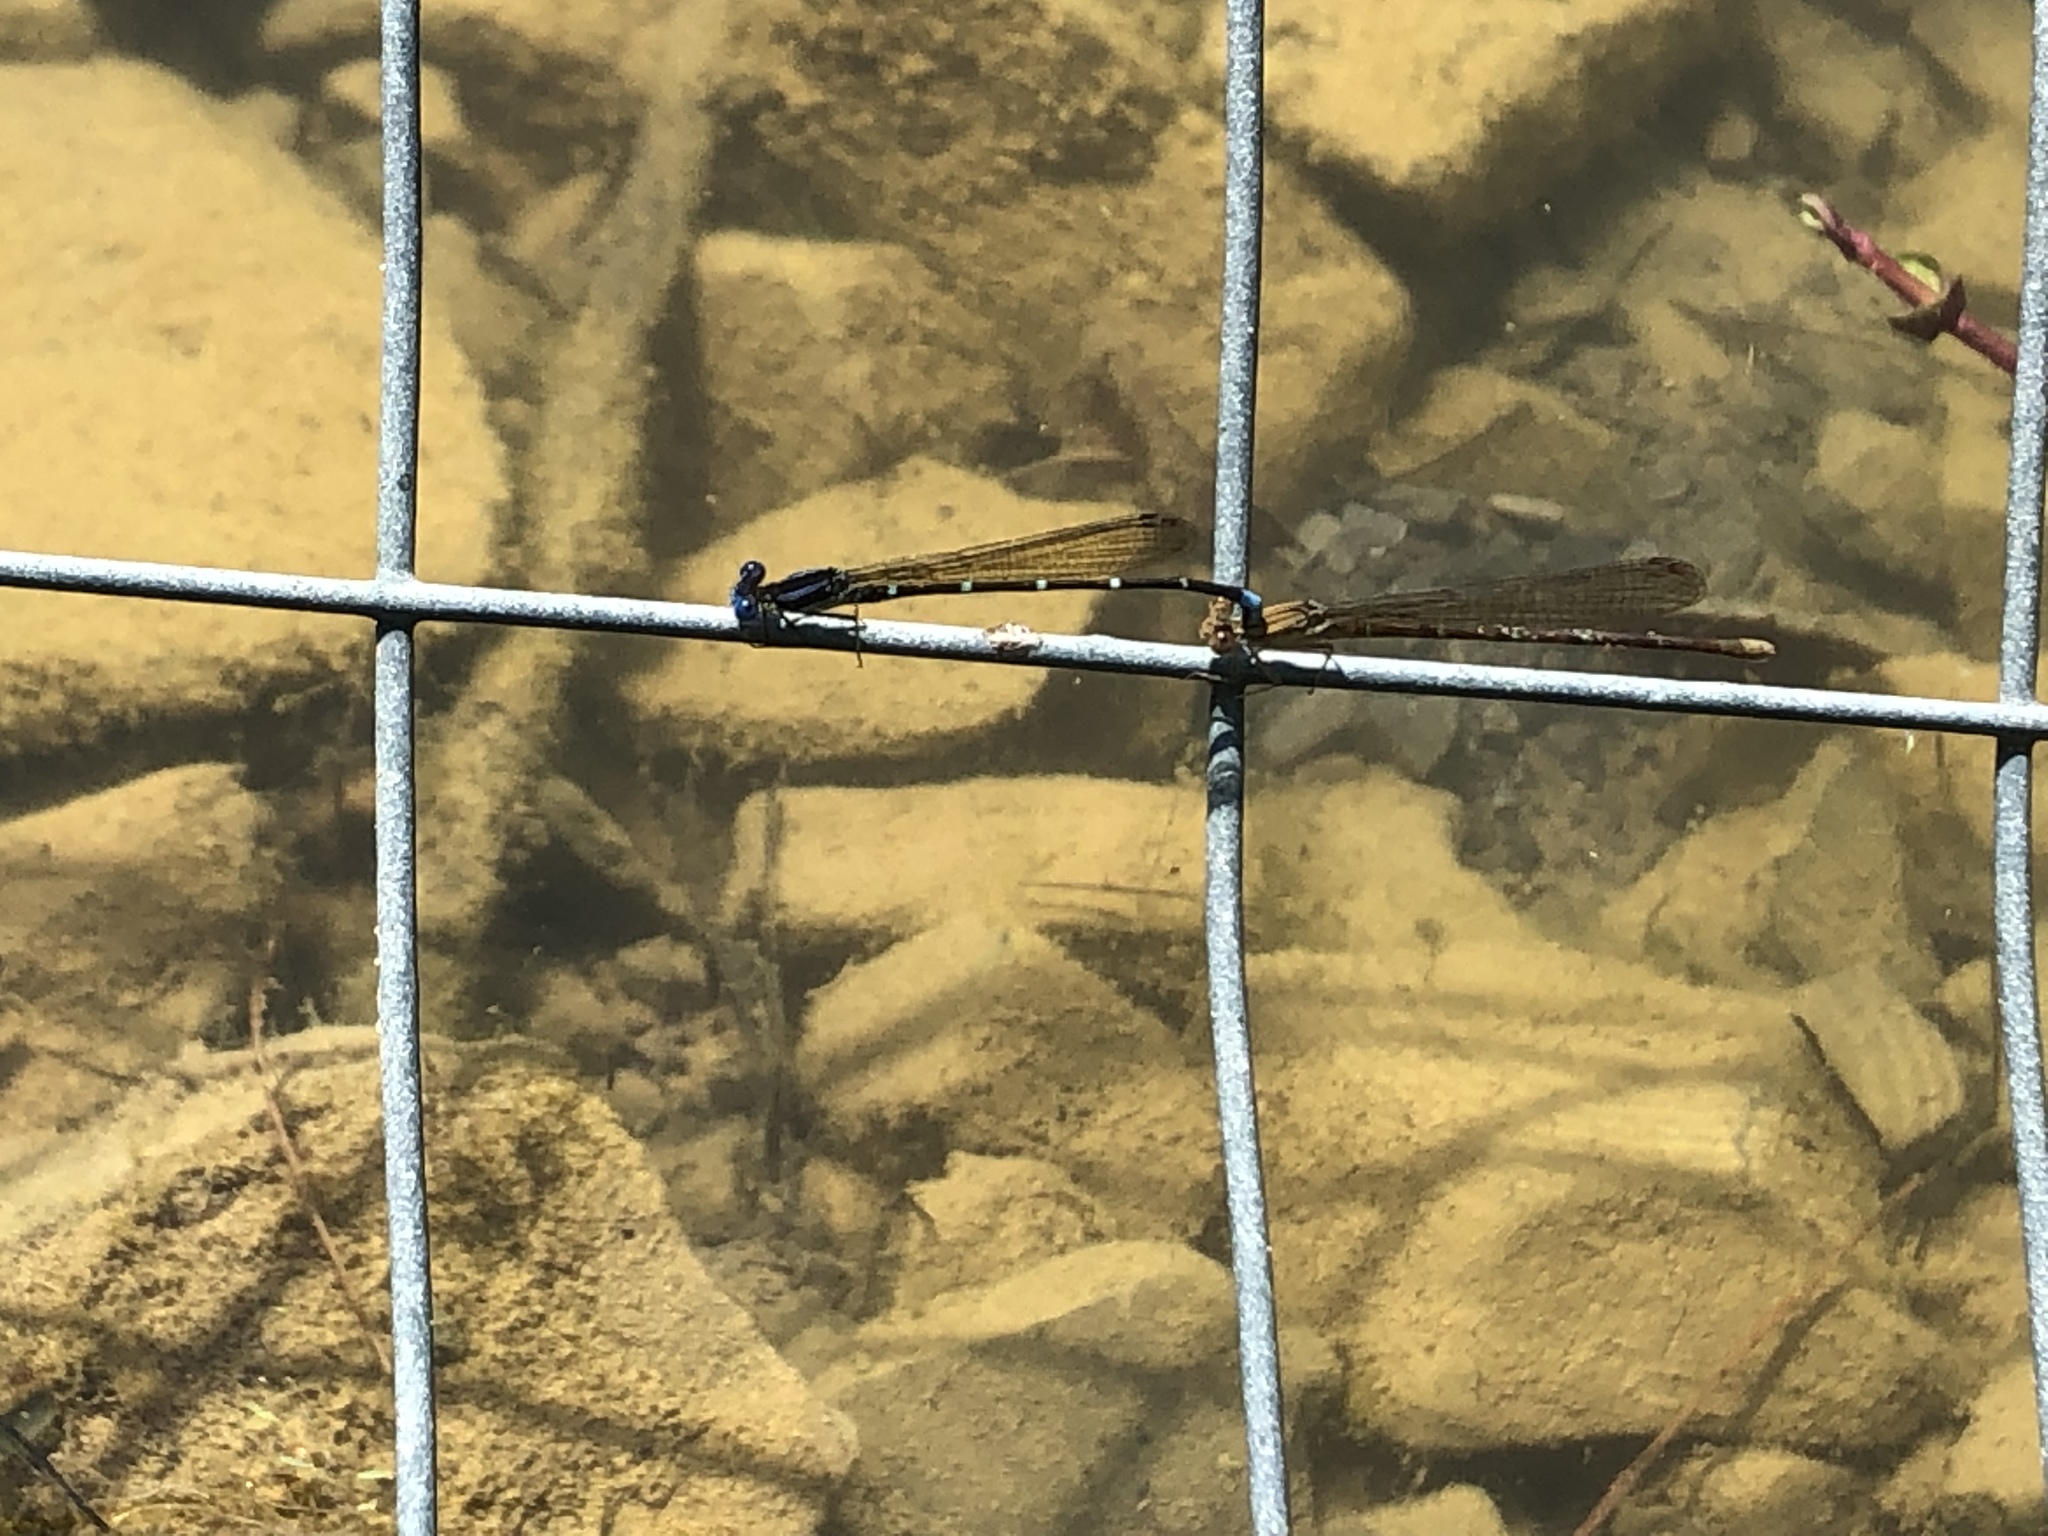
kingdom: Animalia
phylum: Arthropoda
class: Insecta
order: Odonata
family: Coenagrionidae
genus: Argia
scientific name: Argia sedula
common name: Blue-ringed dancer
